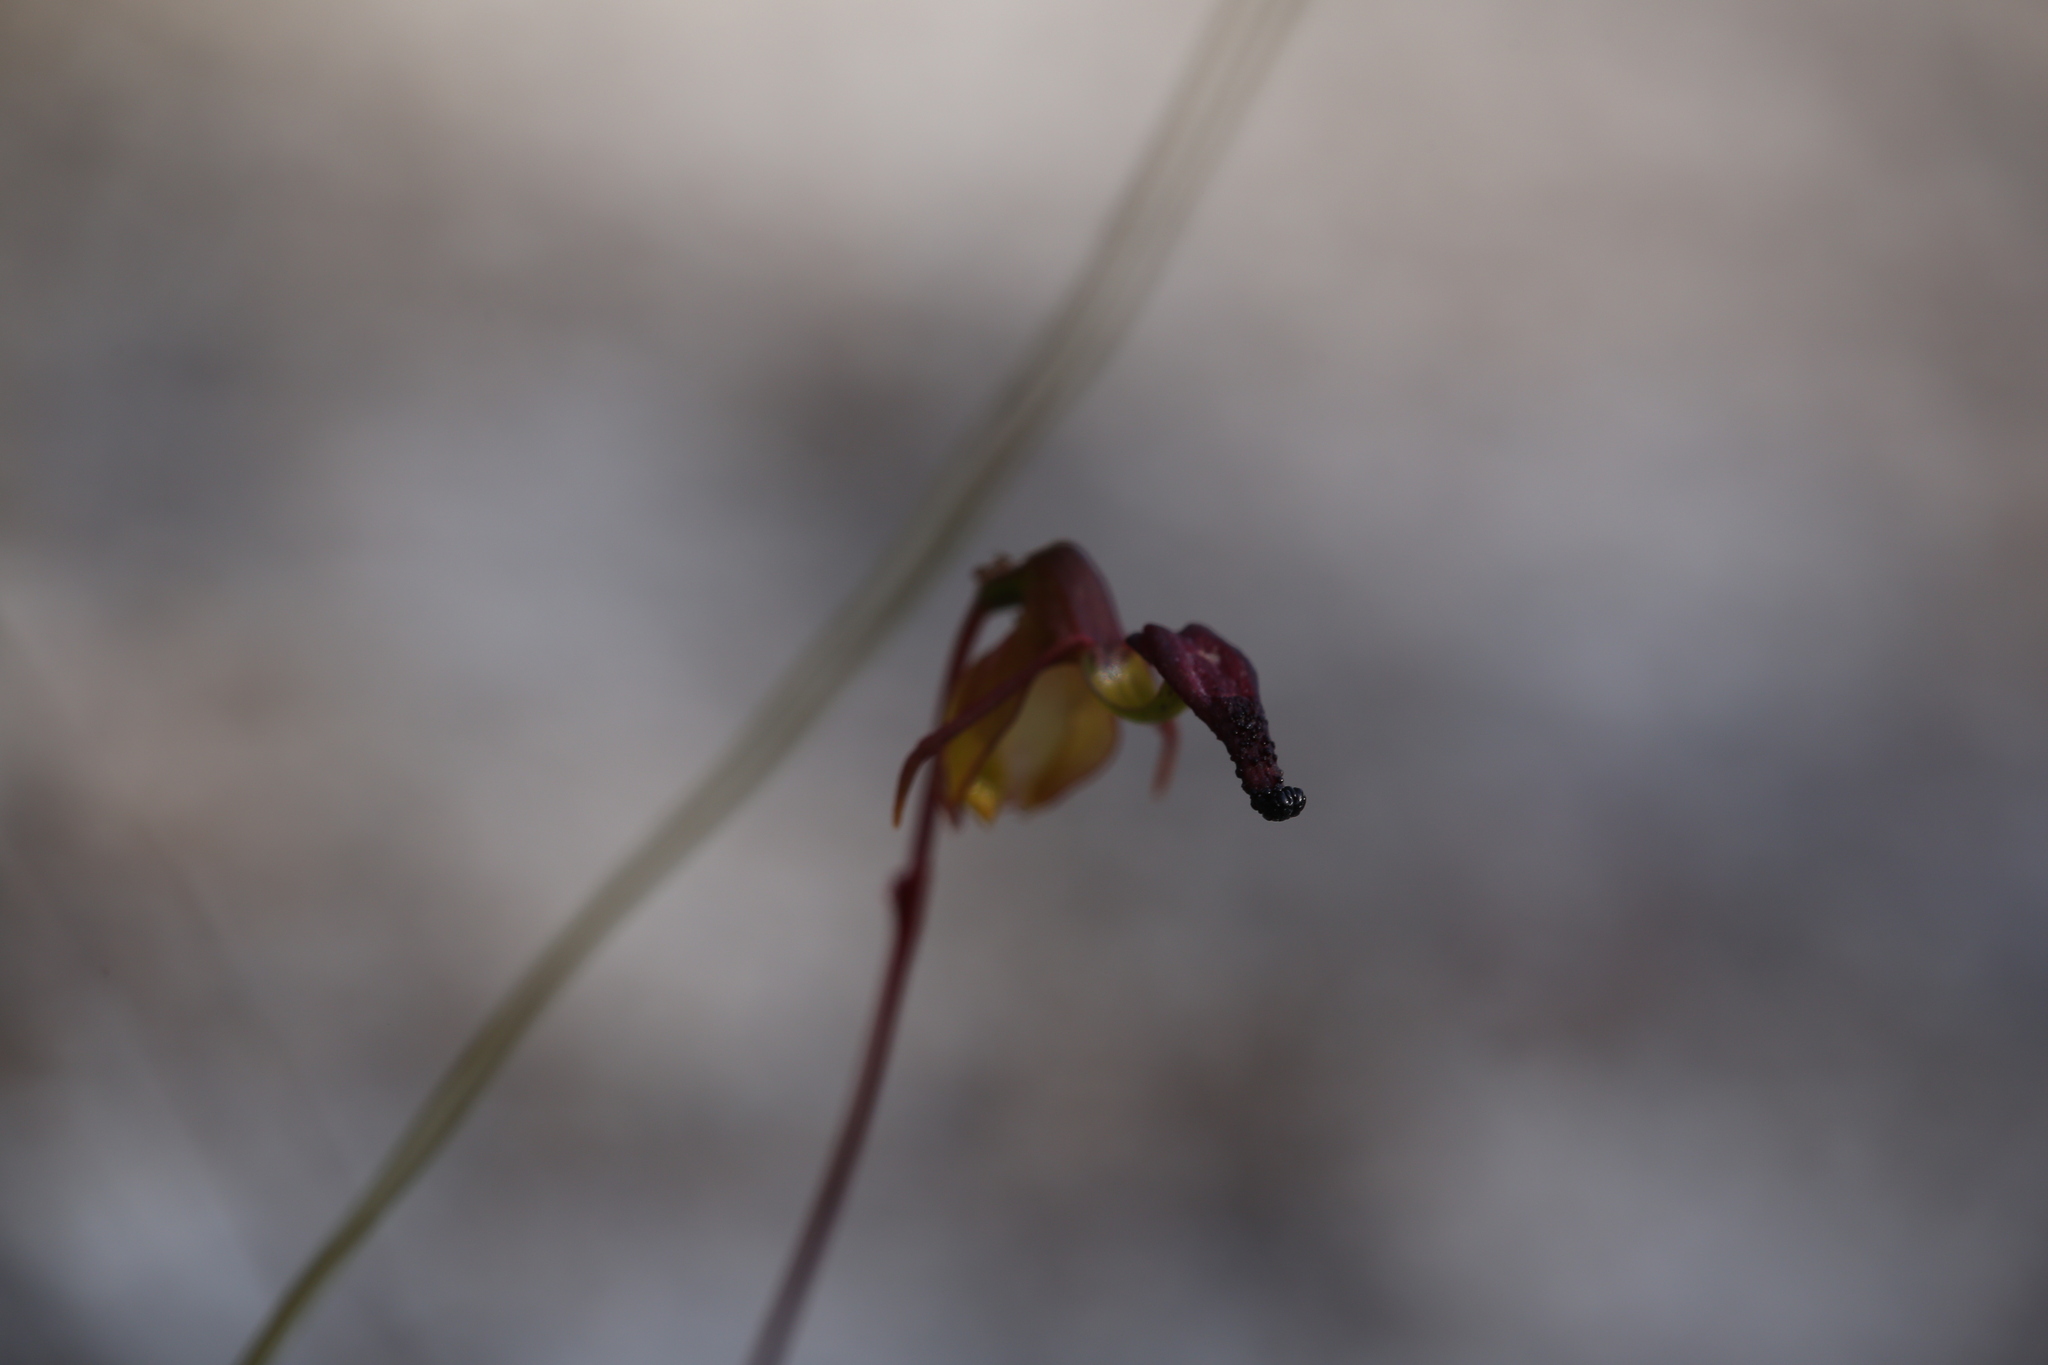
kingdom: Plantae
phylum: Tracheophyta
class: Liliopsida
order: Asparagales
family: Orchidaceae
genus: Caleana
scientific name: Caleana hortiorum
